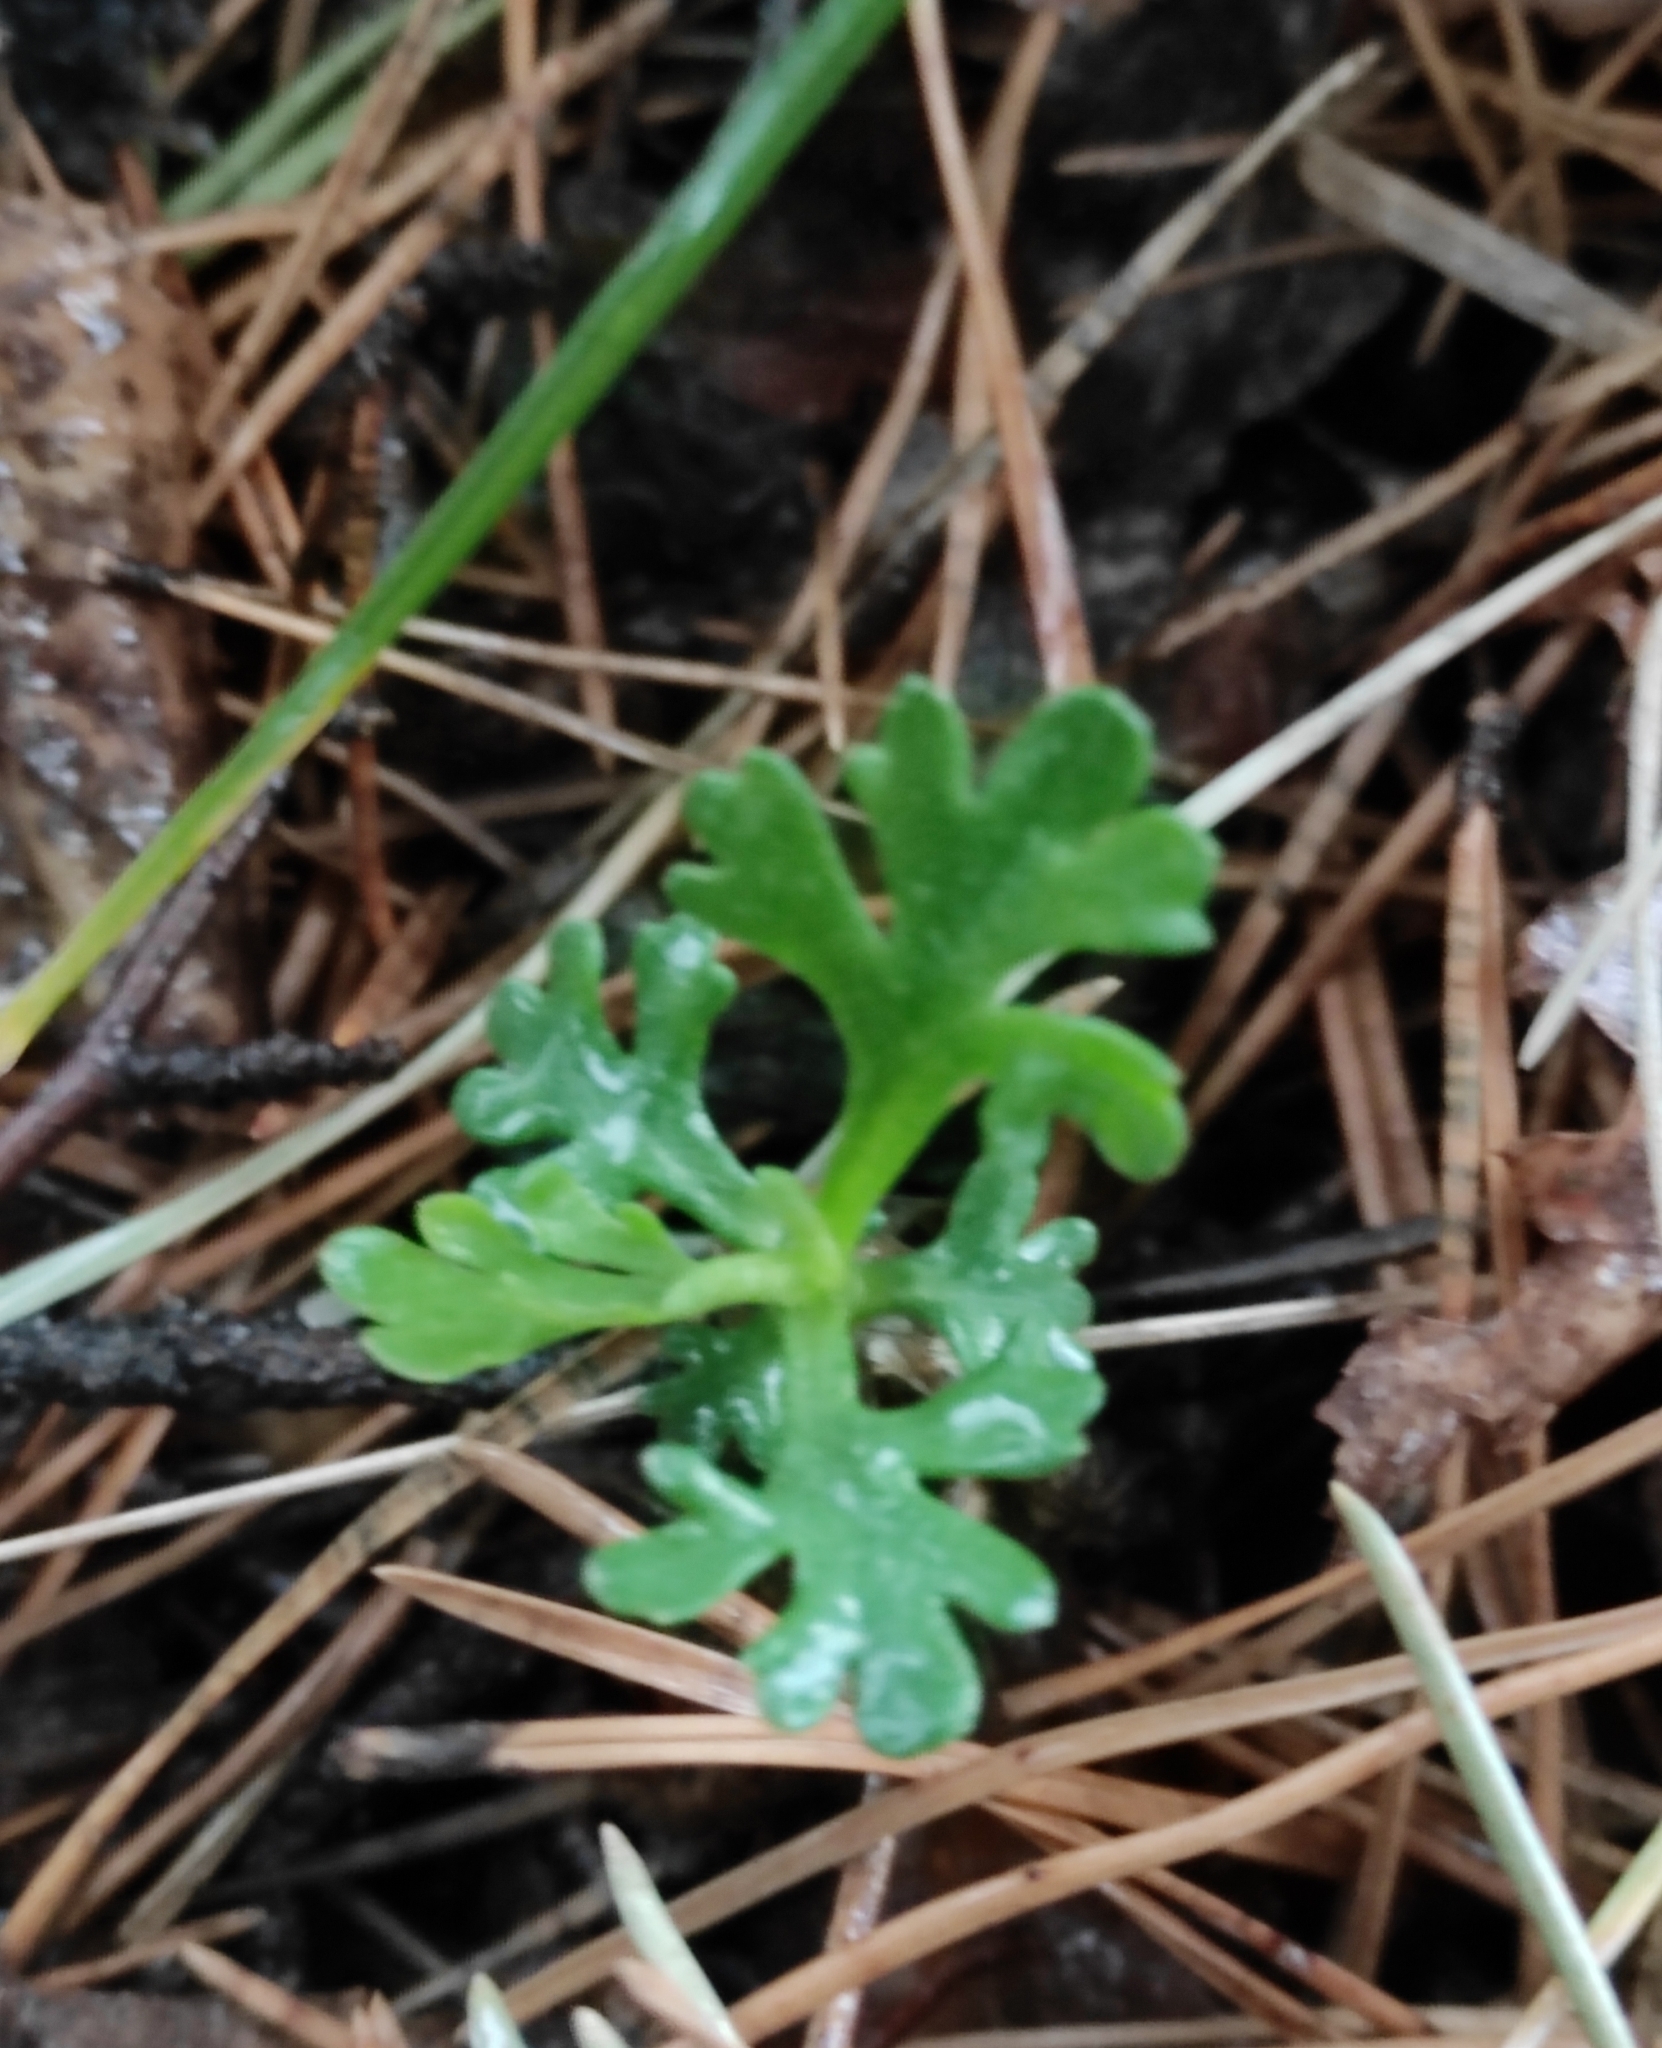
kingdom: Plantae
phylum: Tracheophyta
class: Magnoliopsida
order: Asterales
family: Asteraceae
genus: Chrysanthemum
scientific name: Chrysanthemum zawadzkii
